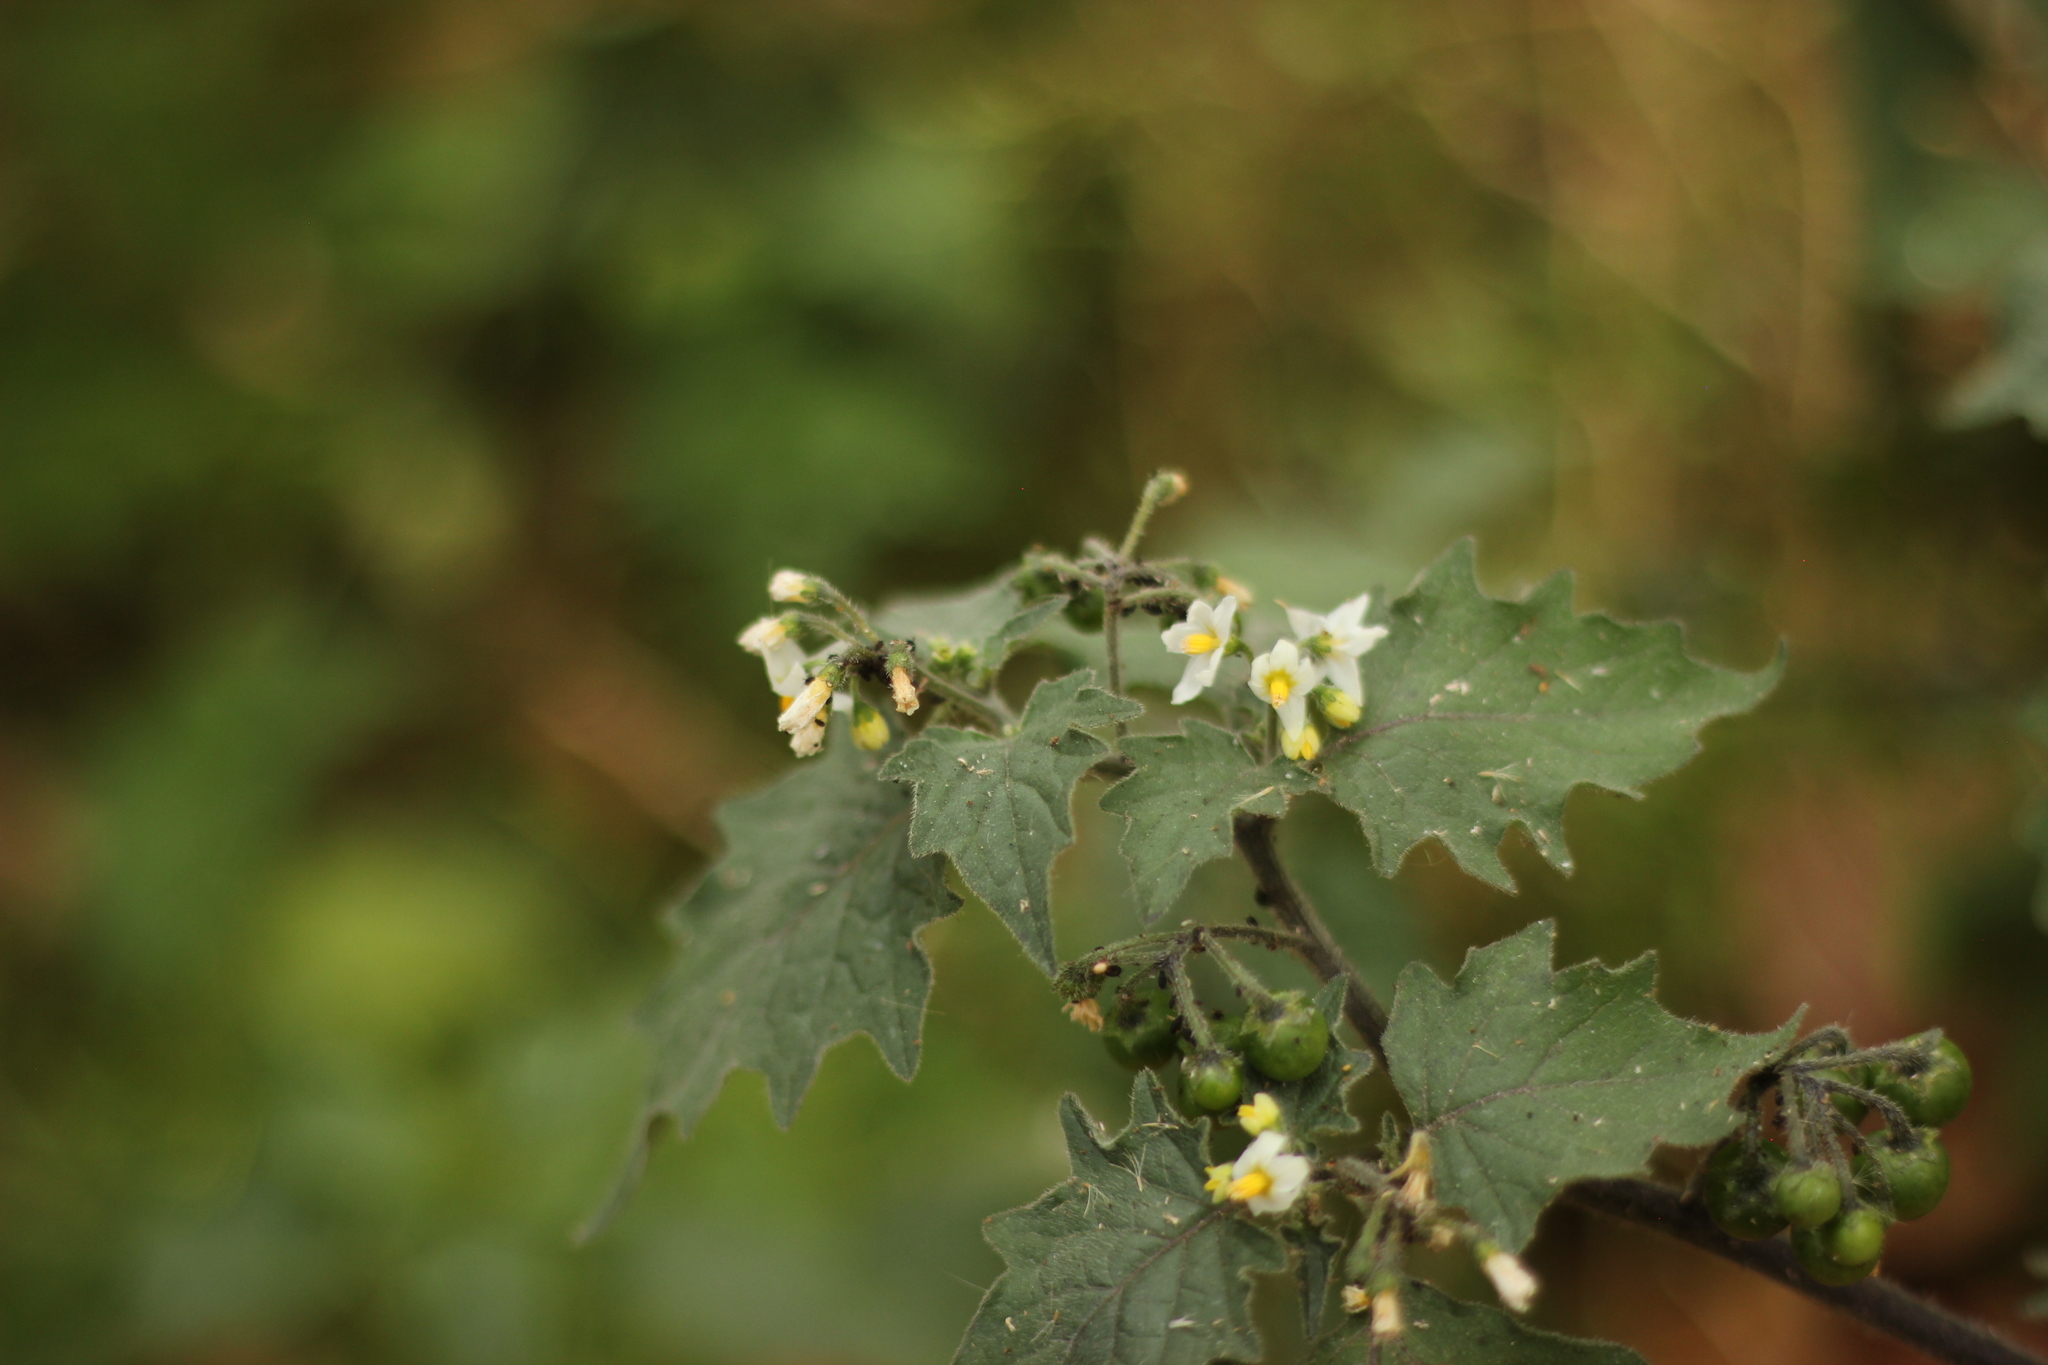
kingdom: Plantae
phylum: Tracheophyta
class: Magnoliopsida
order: Solanales
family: Solanaceae
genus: Solanum
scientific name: Solanum nigrum
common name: Black nightshade
